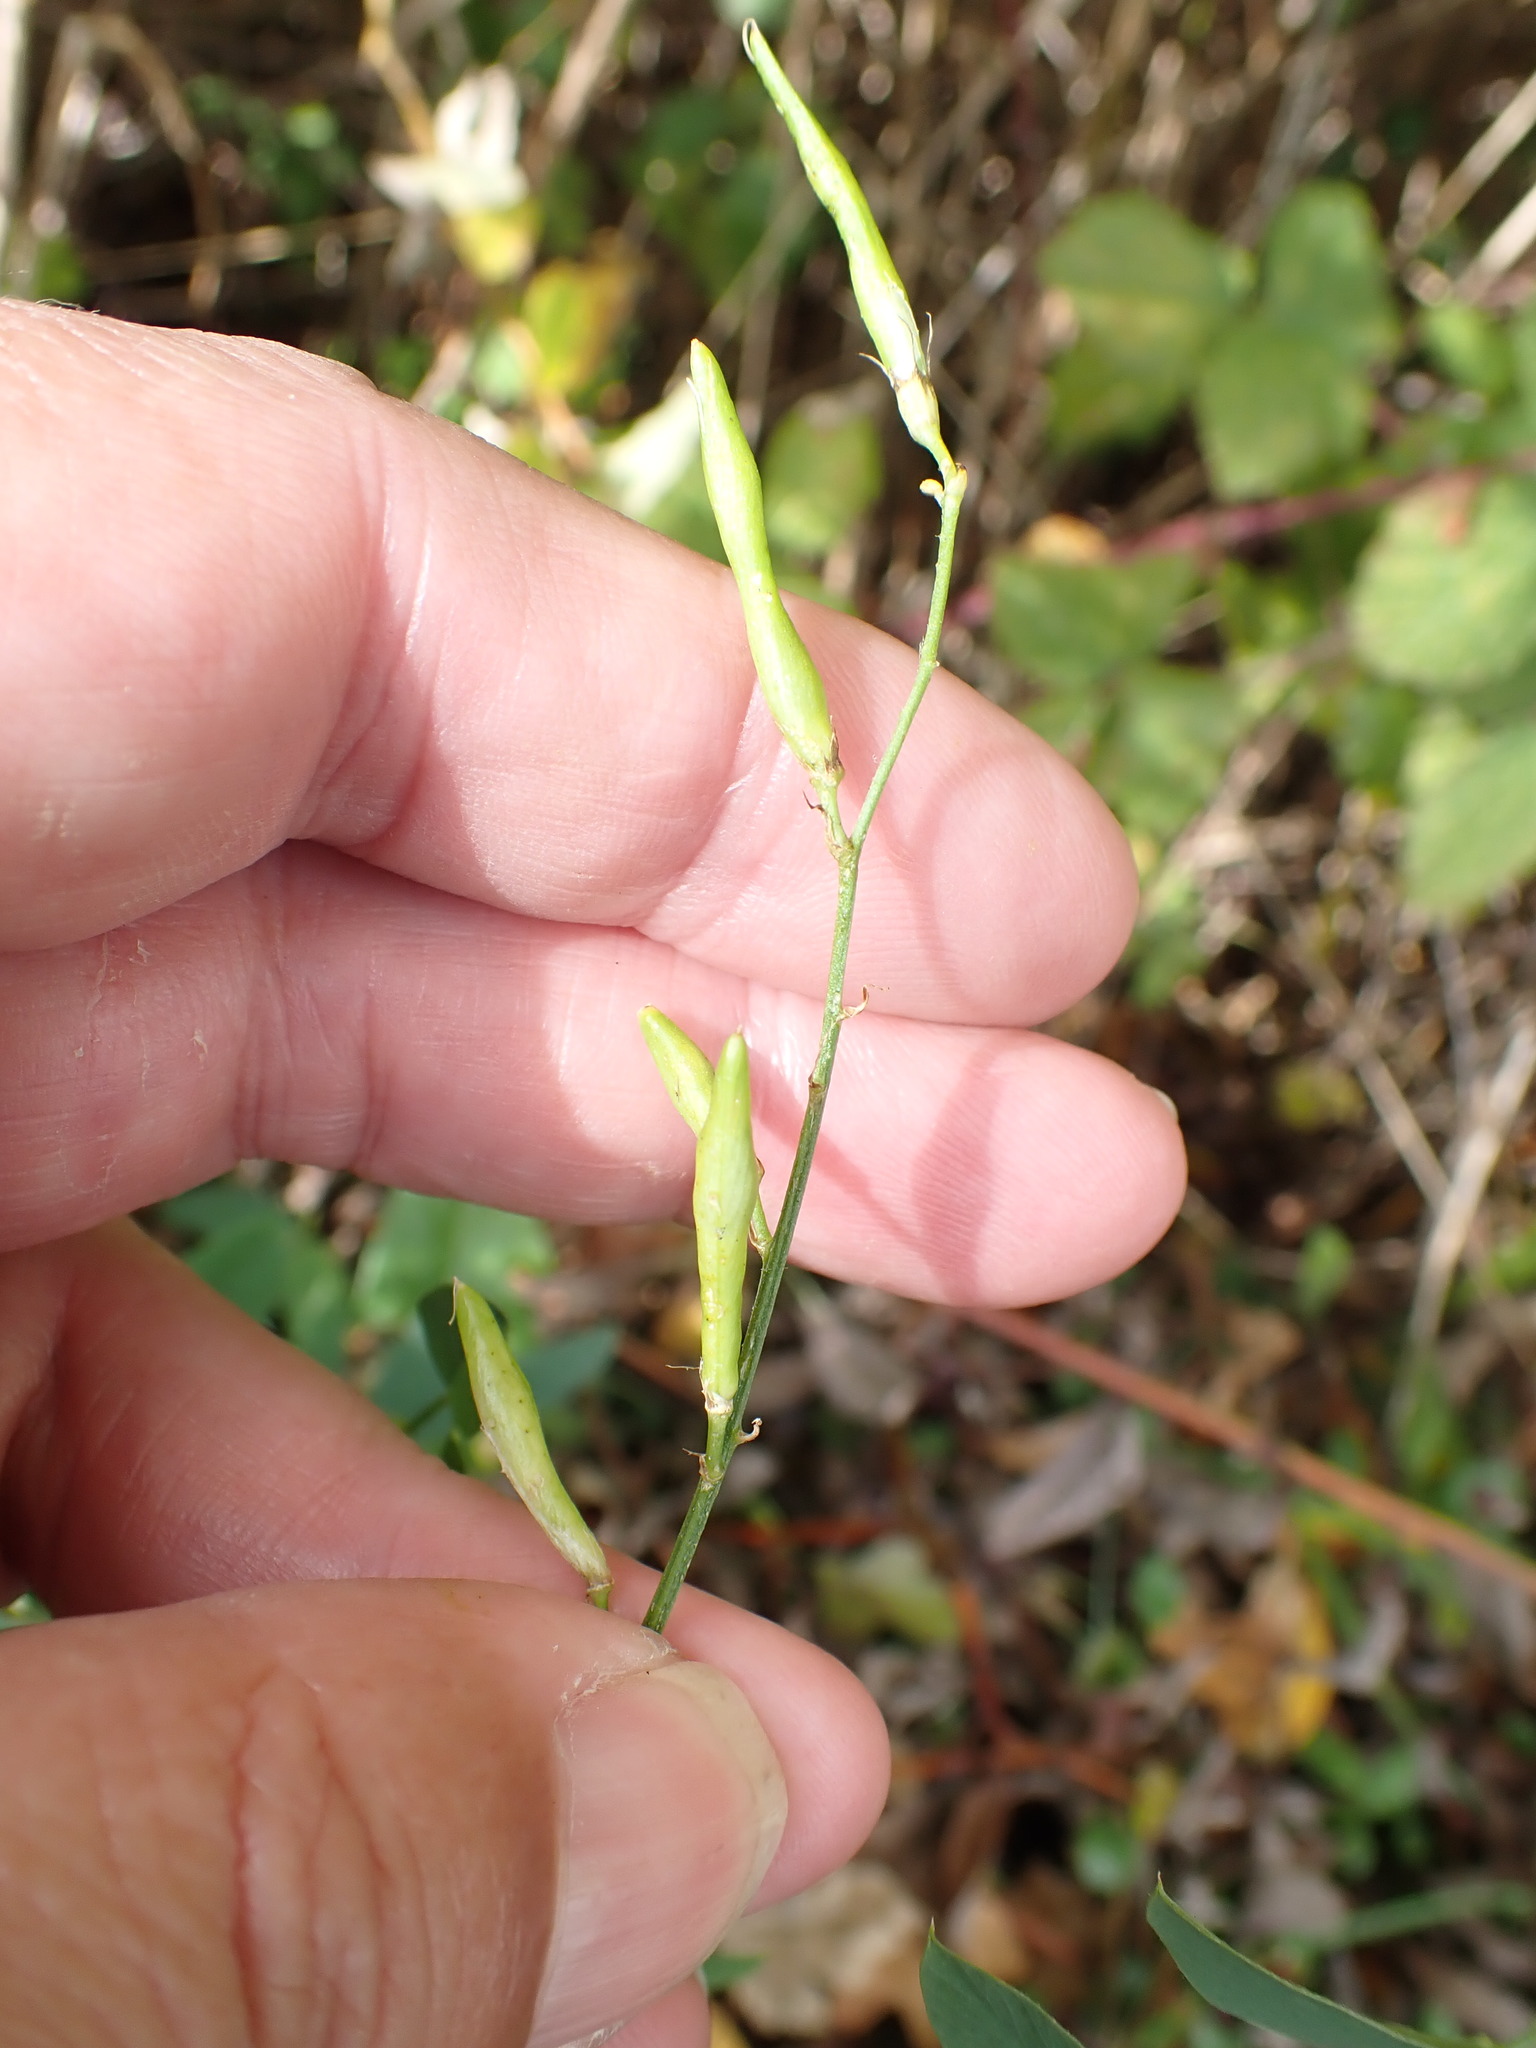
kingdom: Plantae
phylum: Tracheophyta
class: Magnoliopsida
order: Fabales
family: Fabaceae
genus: Galega
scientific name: Galega officinalis
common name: Goat's-rue
